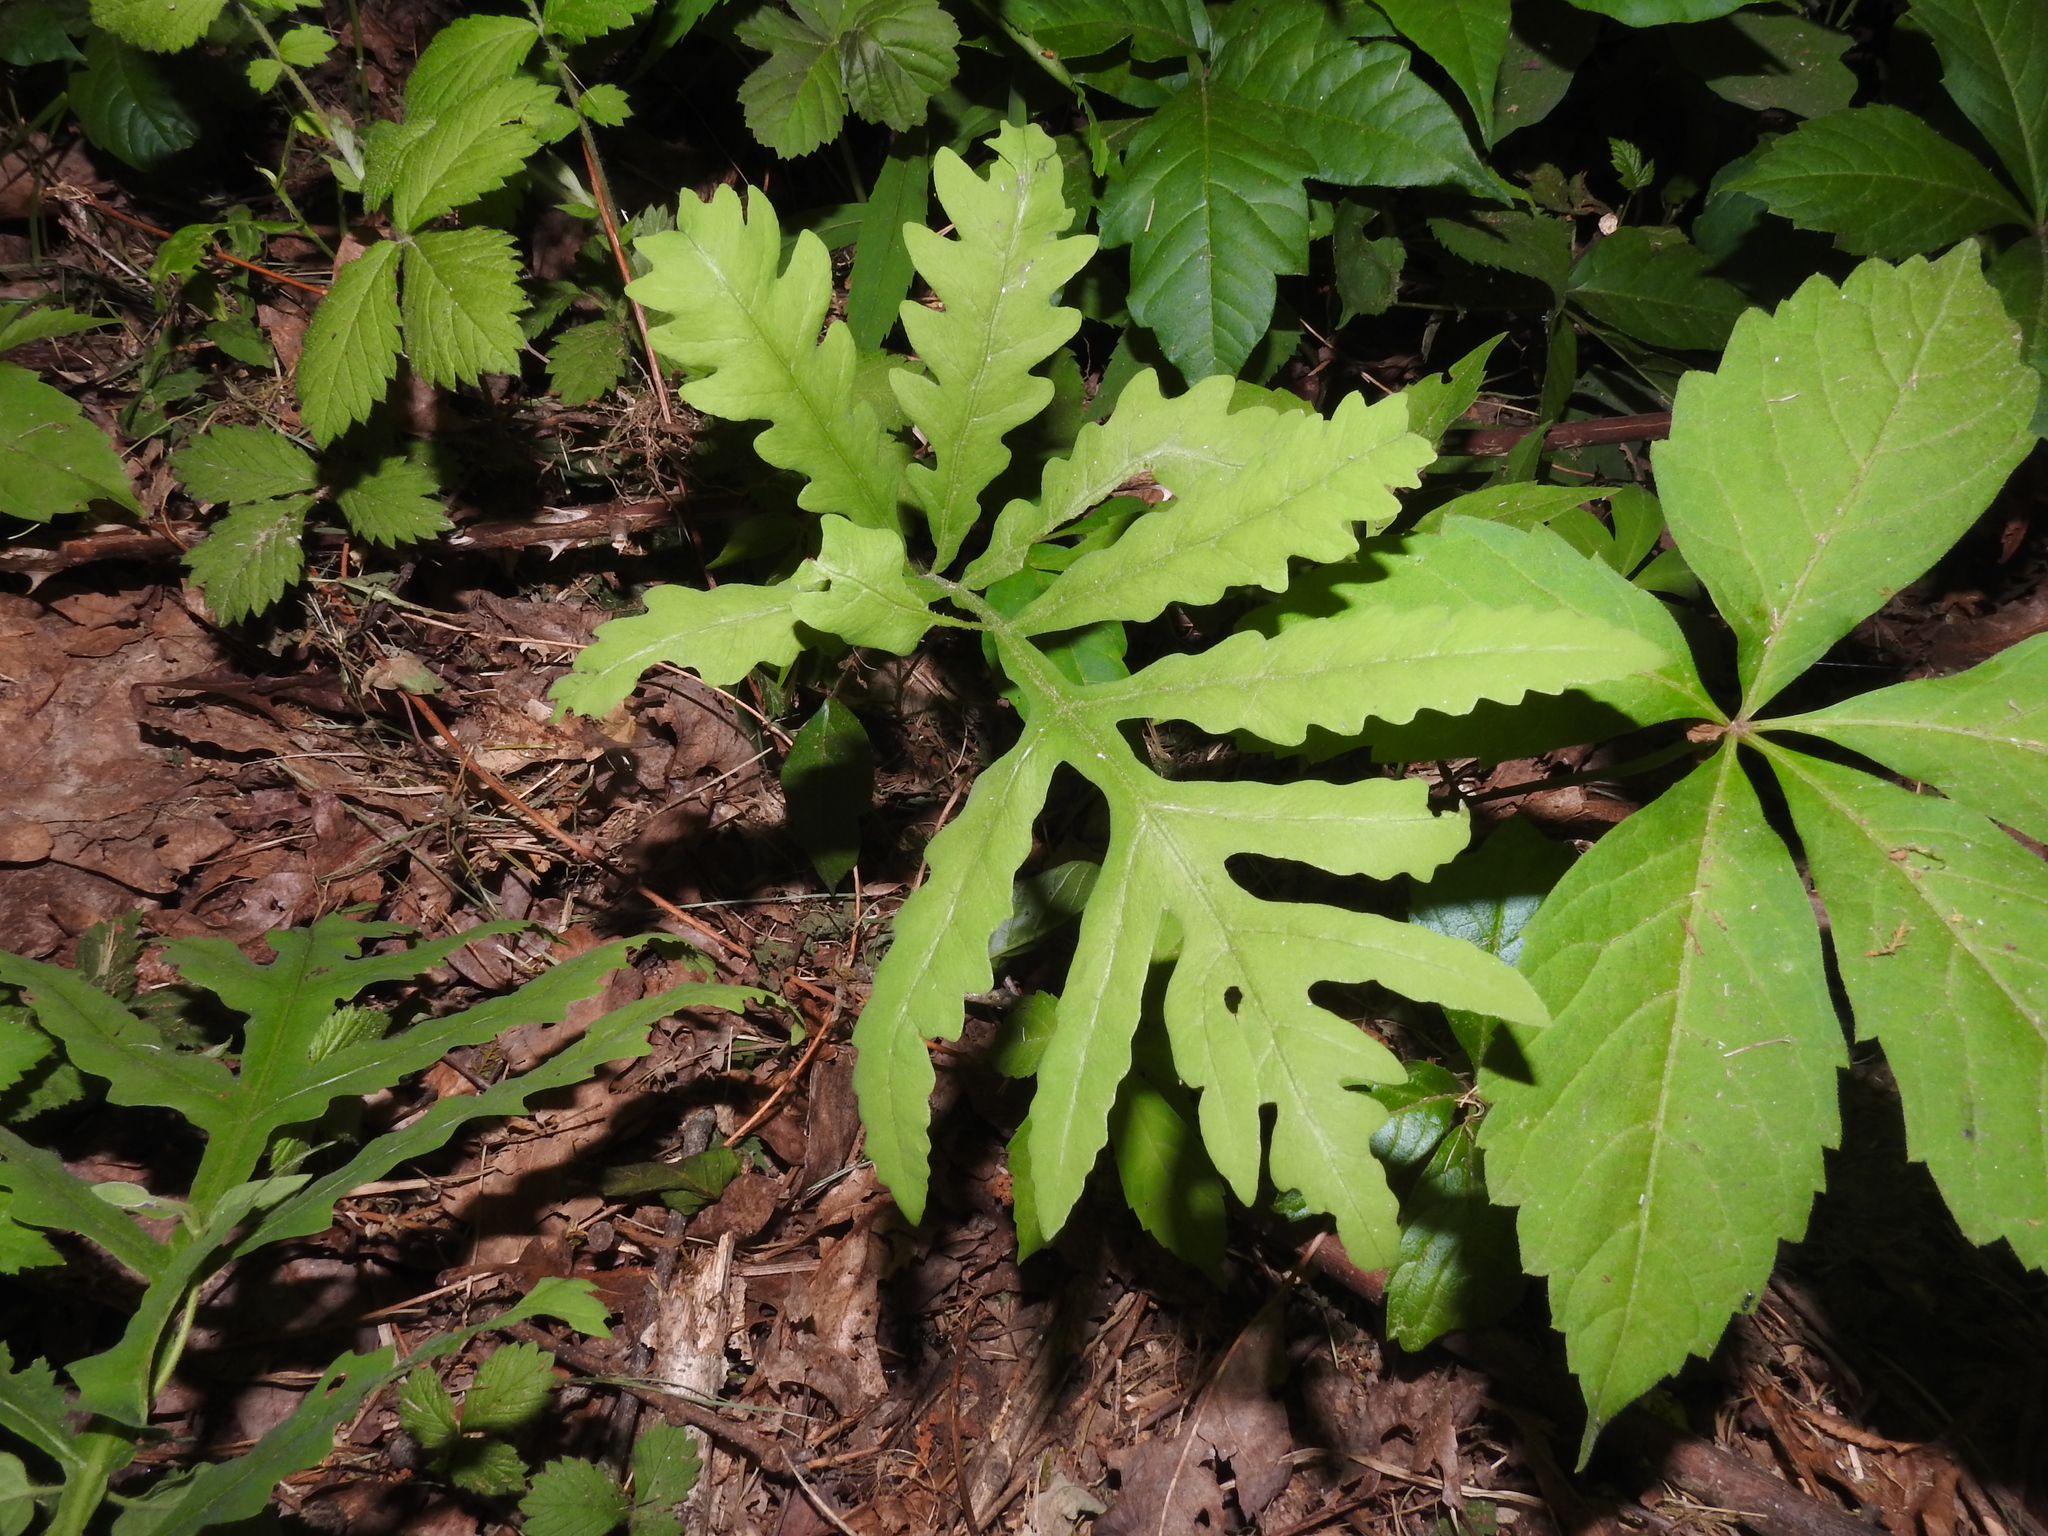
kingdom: Plantae
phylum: Tracheophyta
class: Polypodiopsida
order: Polypodiales
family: Onocleaceae
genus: Onoclea
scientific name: Onoclea sensibilis
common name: Sensitive fern
